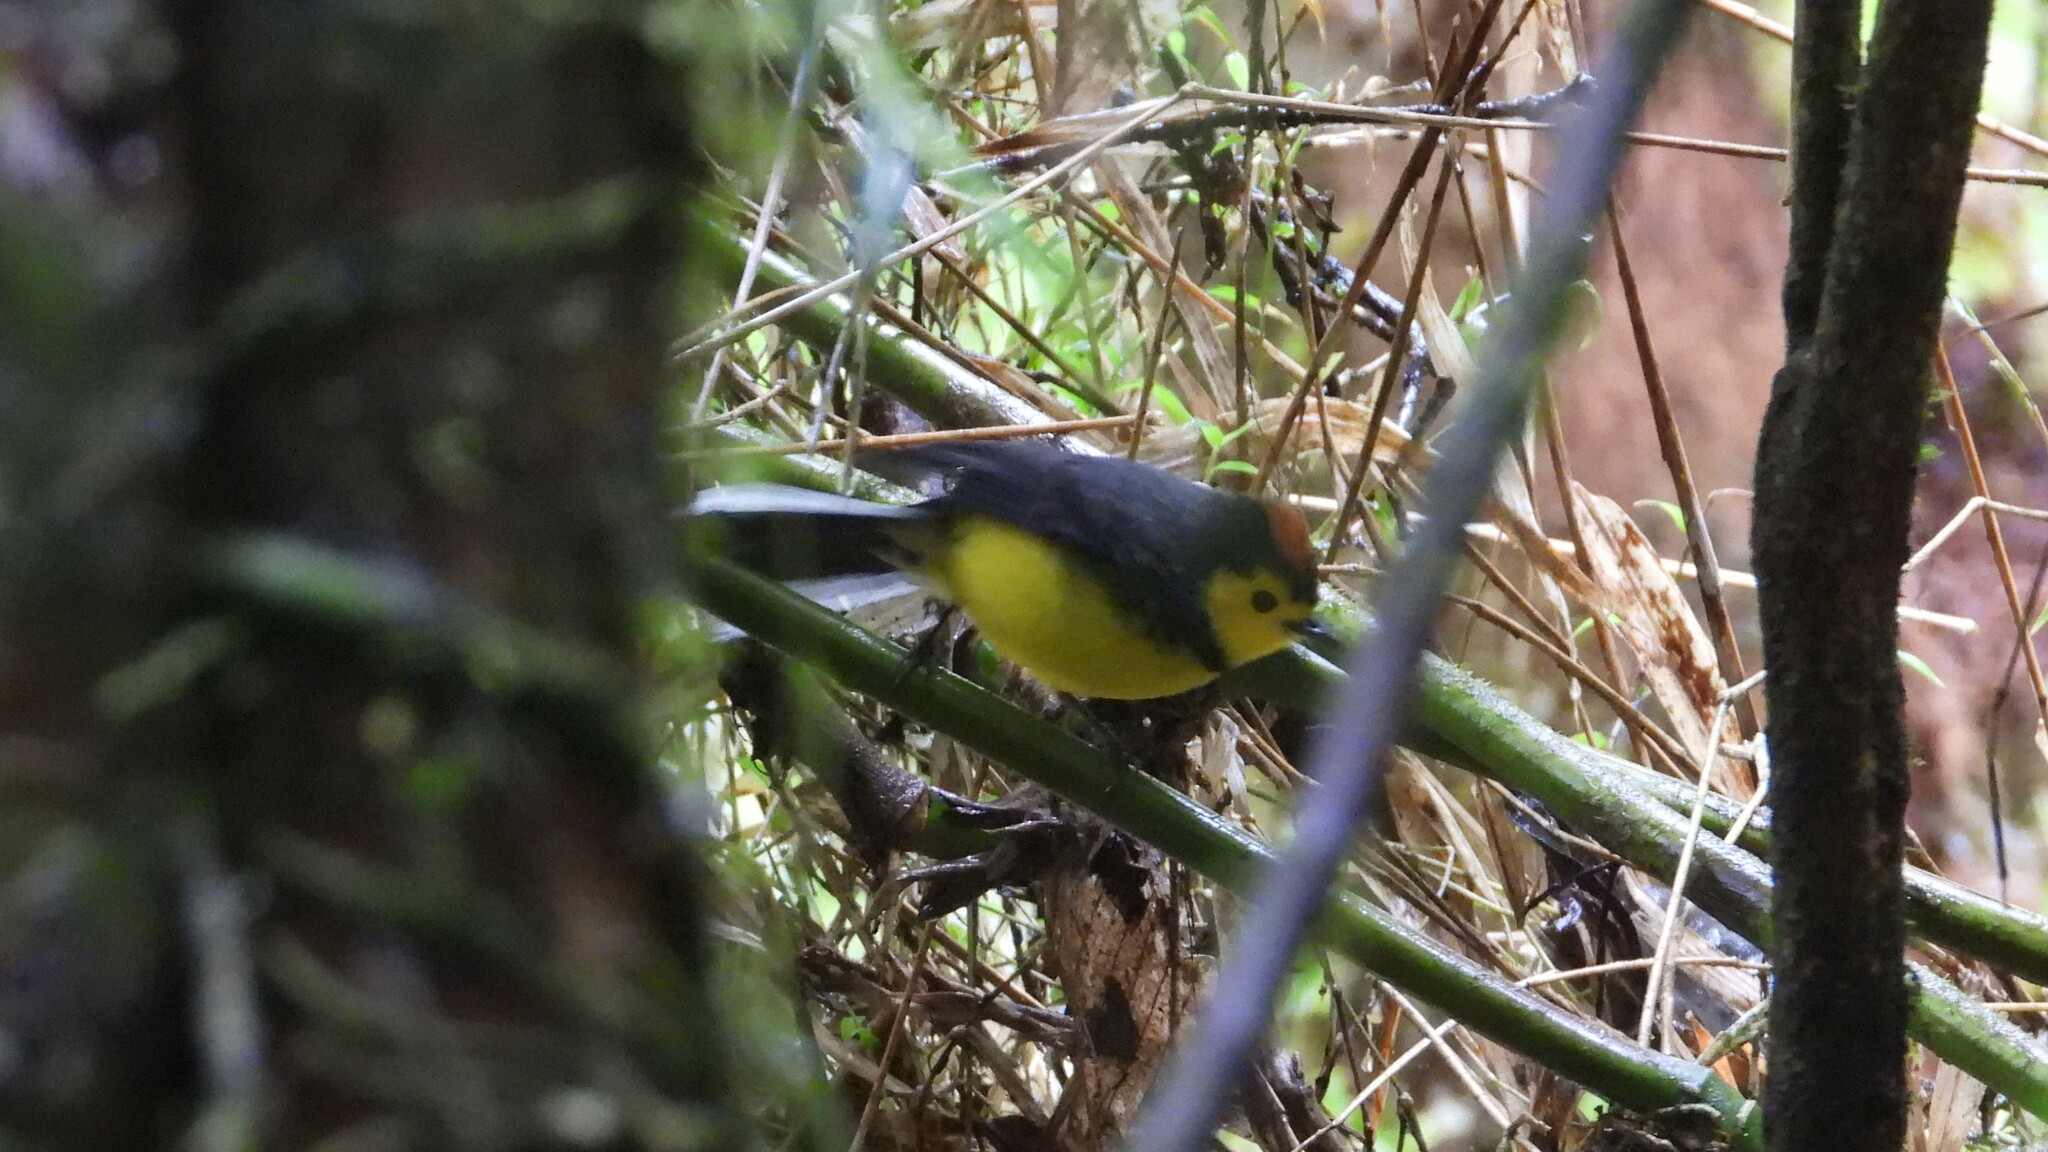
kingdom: Animalia
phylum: Chordata
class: Aves
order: Passeriformes
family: Parulidae
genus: Myioborus
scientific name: Myioborus torquatus
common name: Collared whitestart
